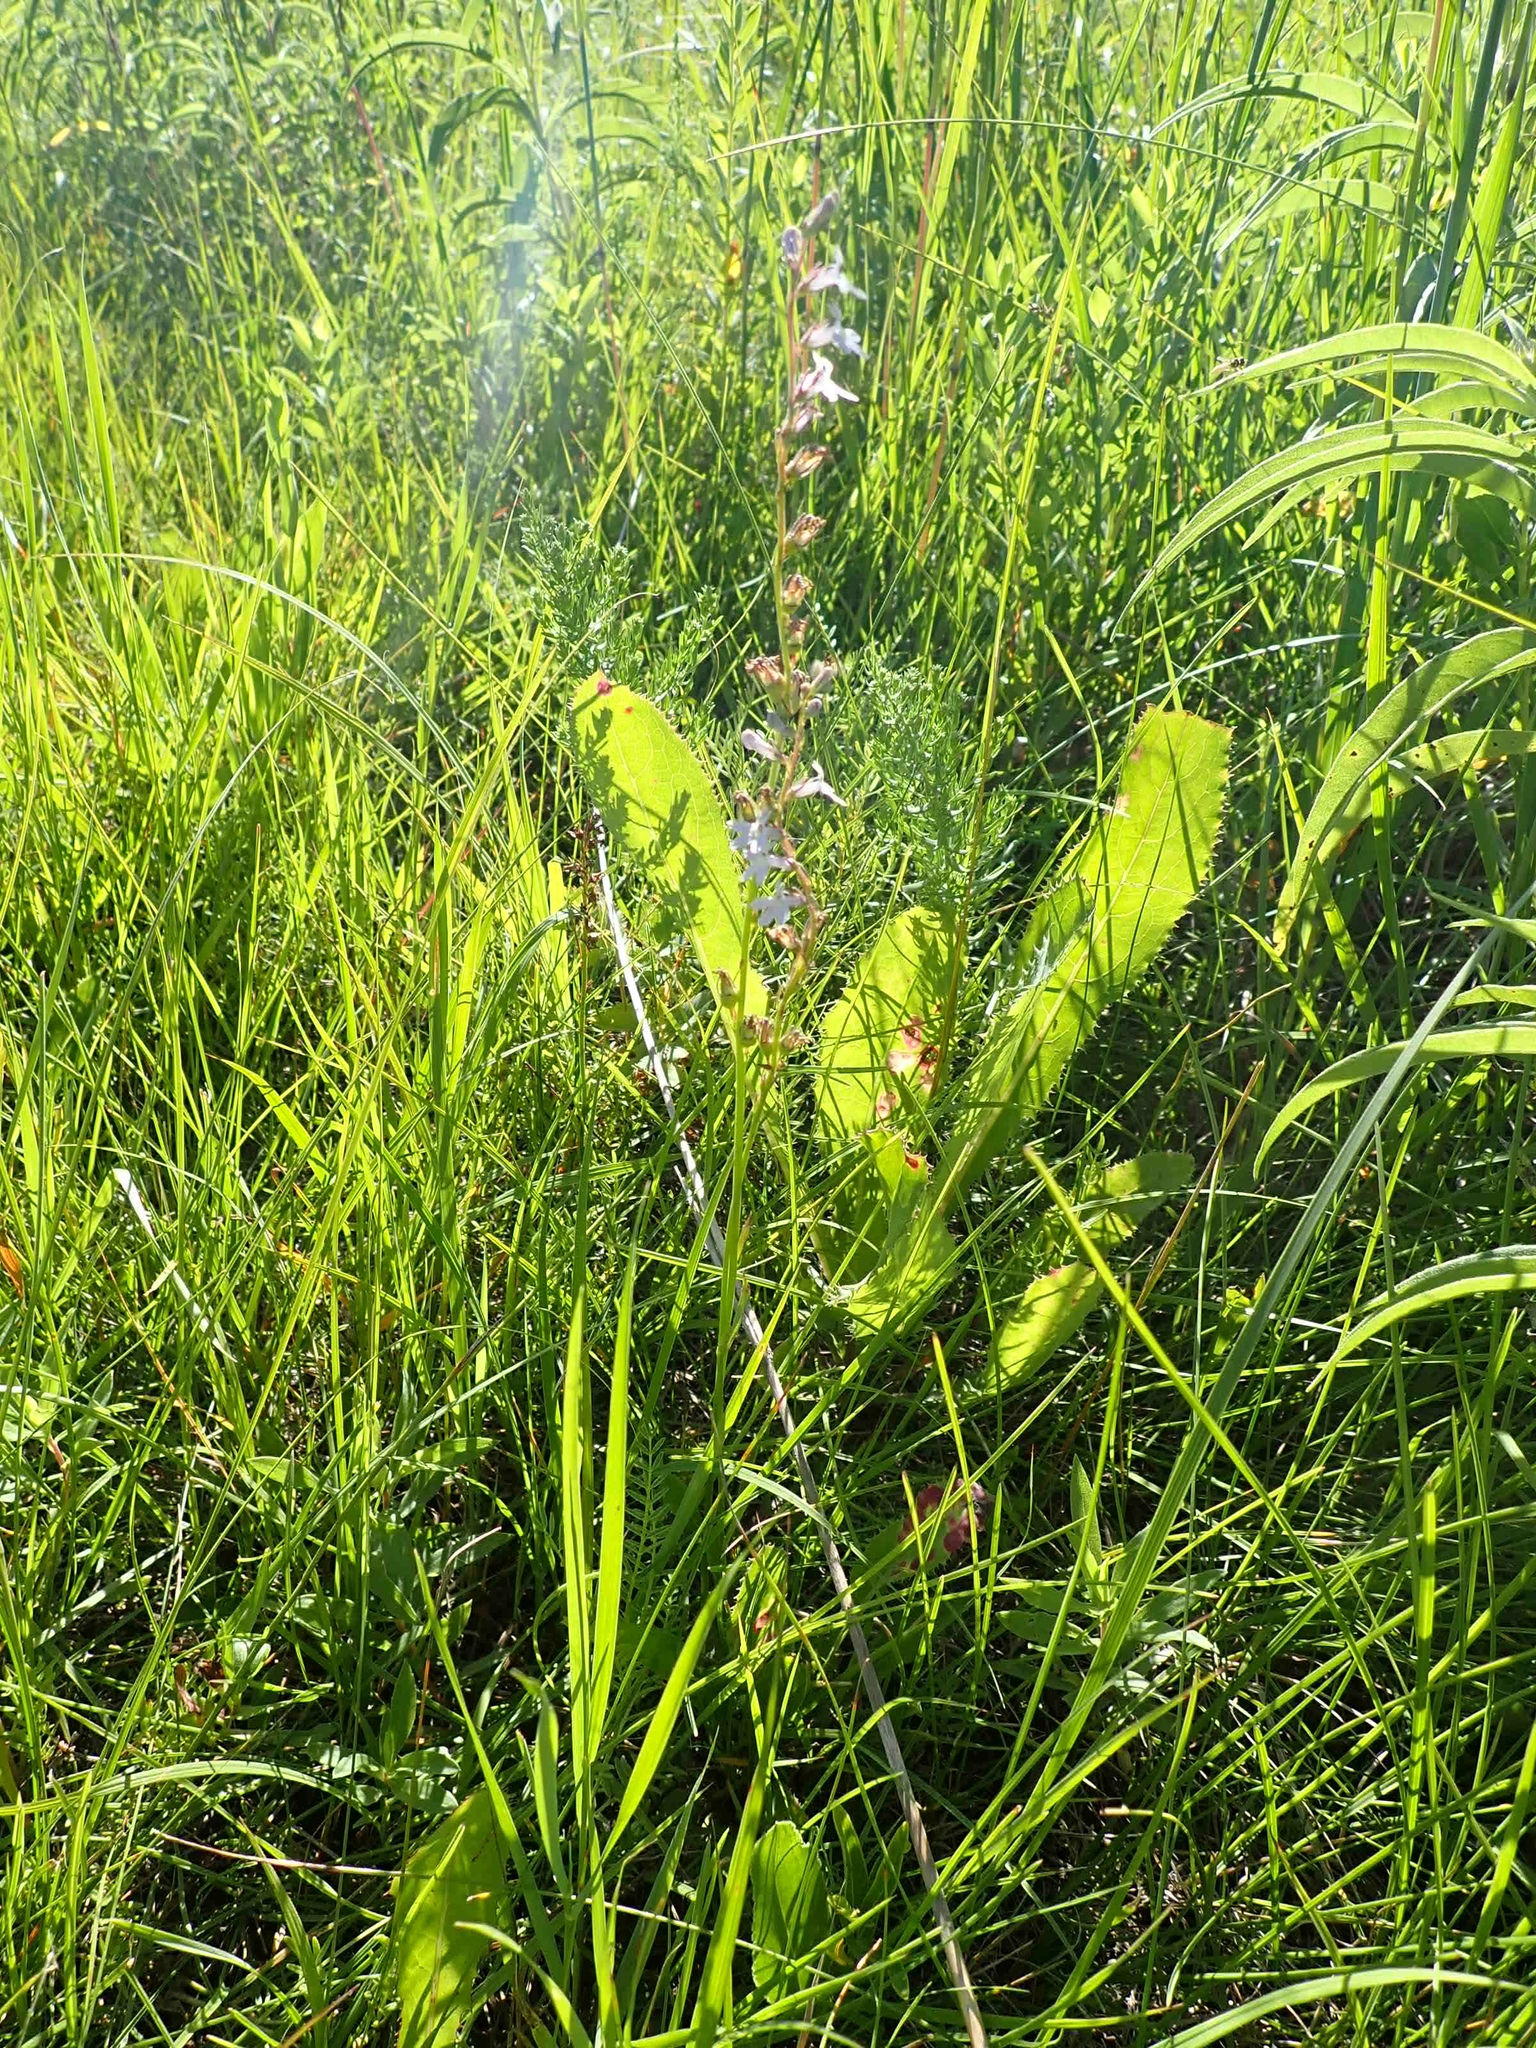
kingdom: Plantae
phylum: Tracheophyta
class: Magnoliopsida
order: Asterales
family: Campanulaceae
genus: Lobelia
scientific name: Lobelia spicata
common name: Pale-spike lobelia
